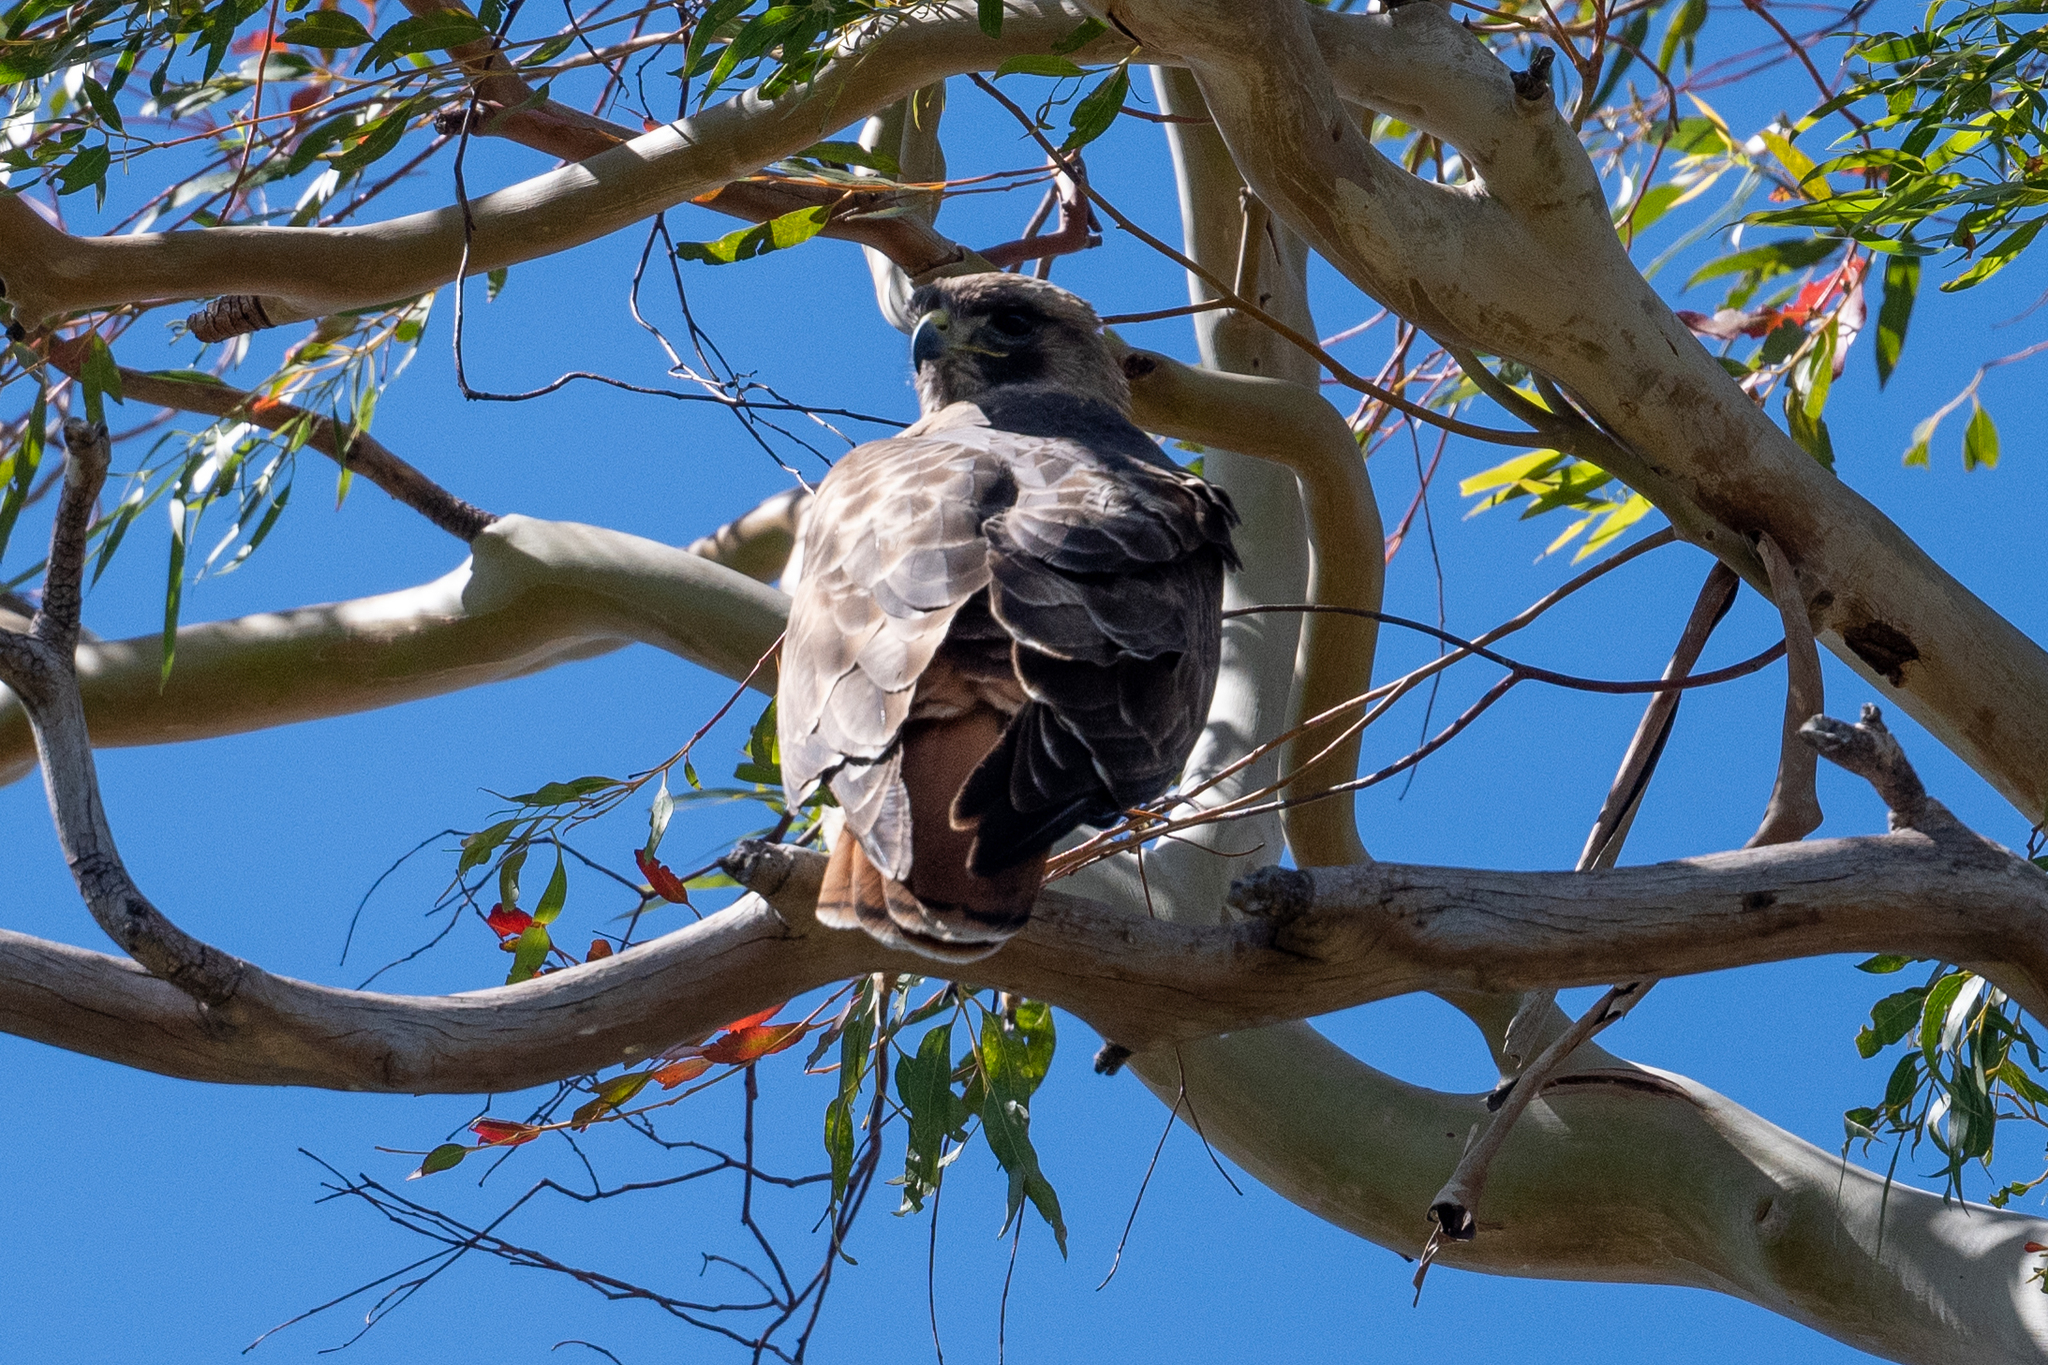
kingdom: Animalia
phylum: Chordata
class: Aves
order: Accipitriformes
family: Accipitridae
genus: Buteo
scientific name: Buteo jamaicensis
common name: Red-tailed hawk
